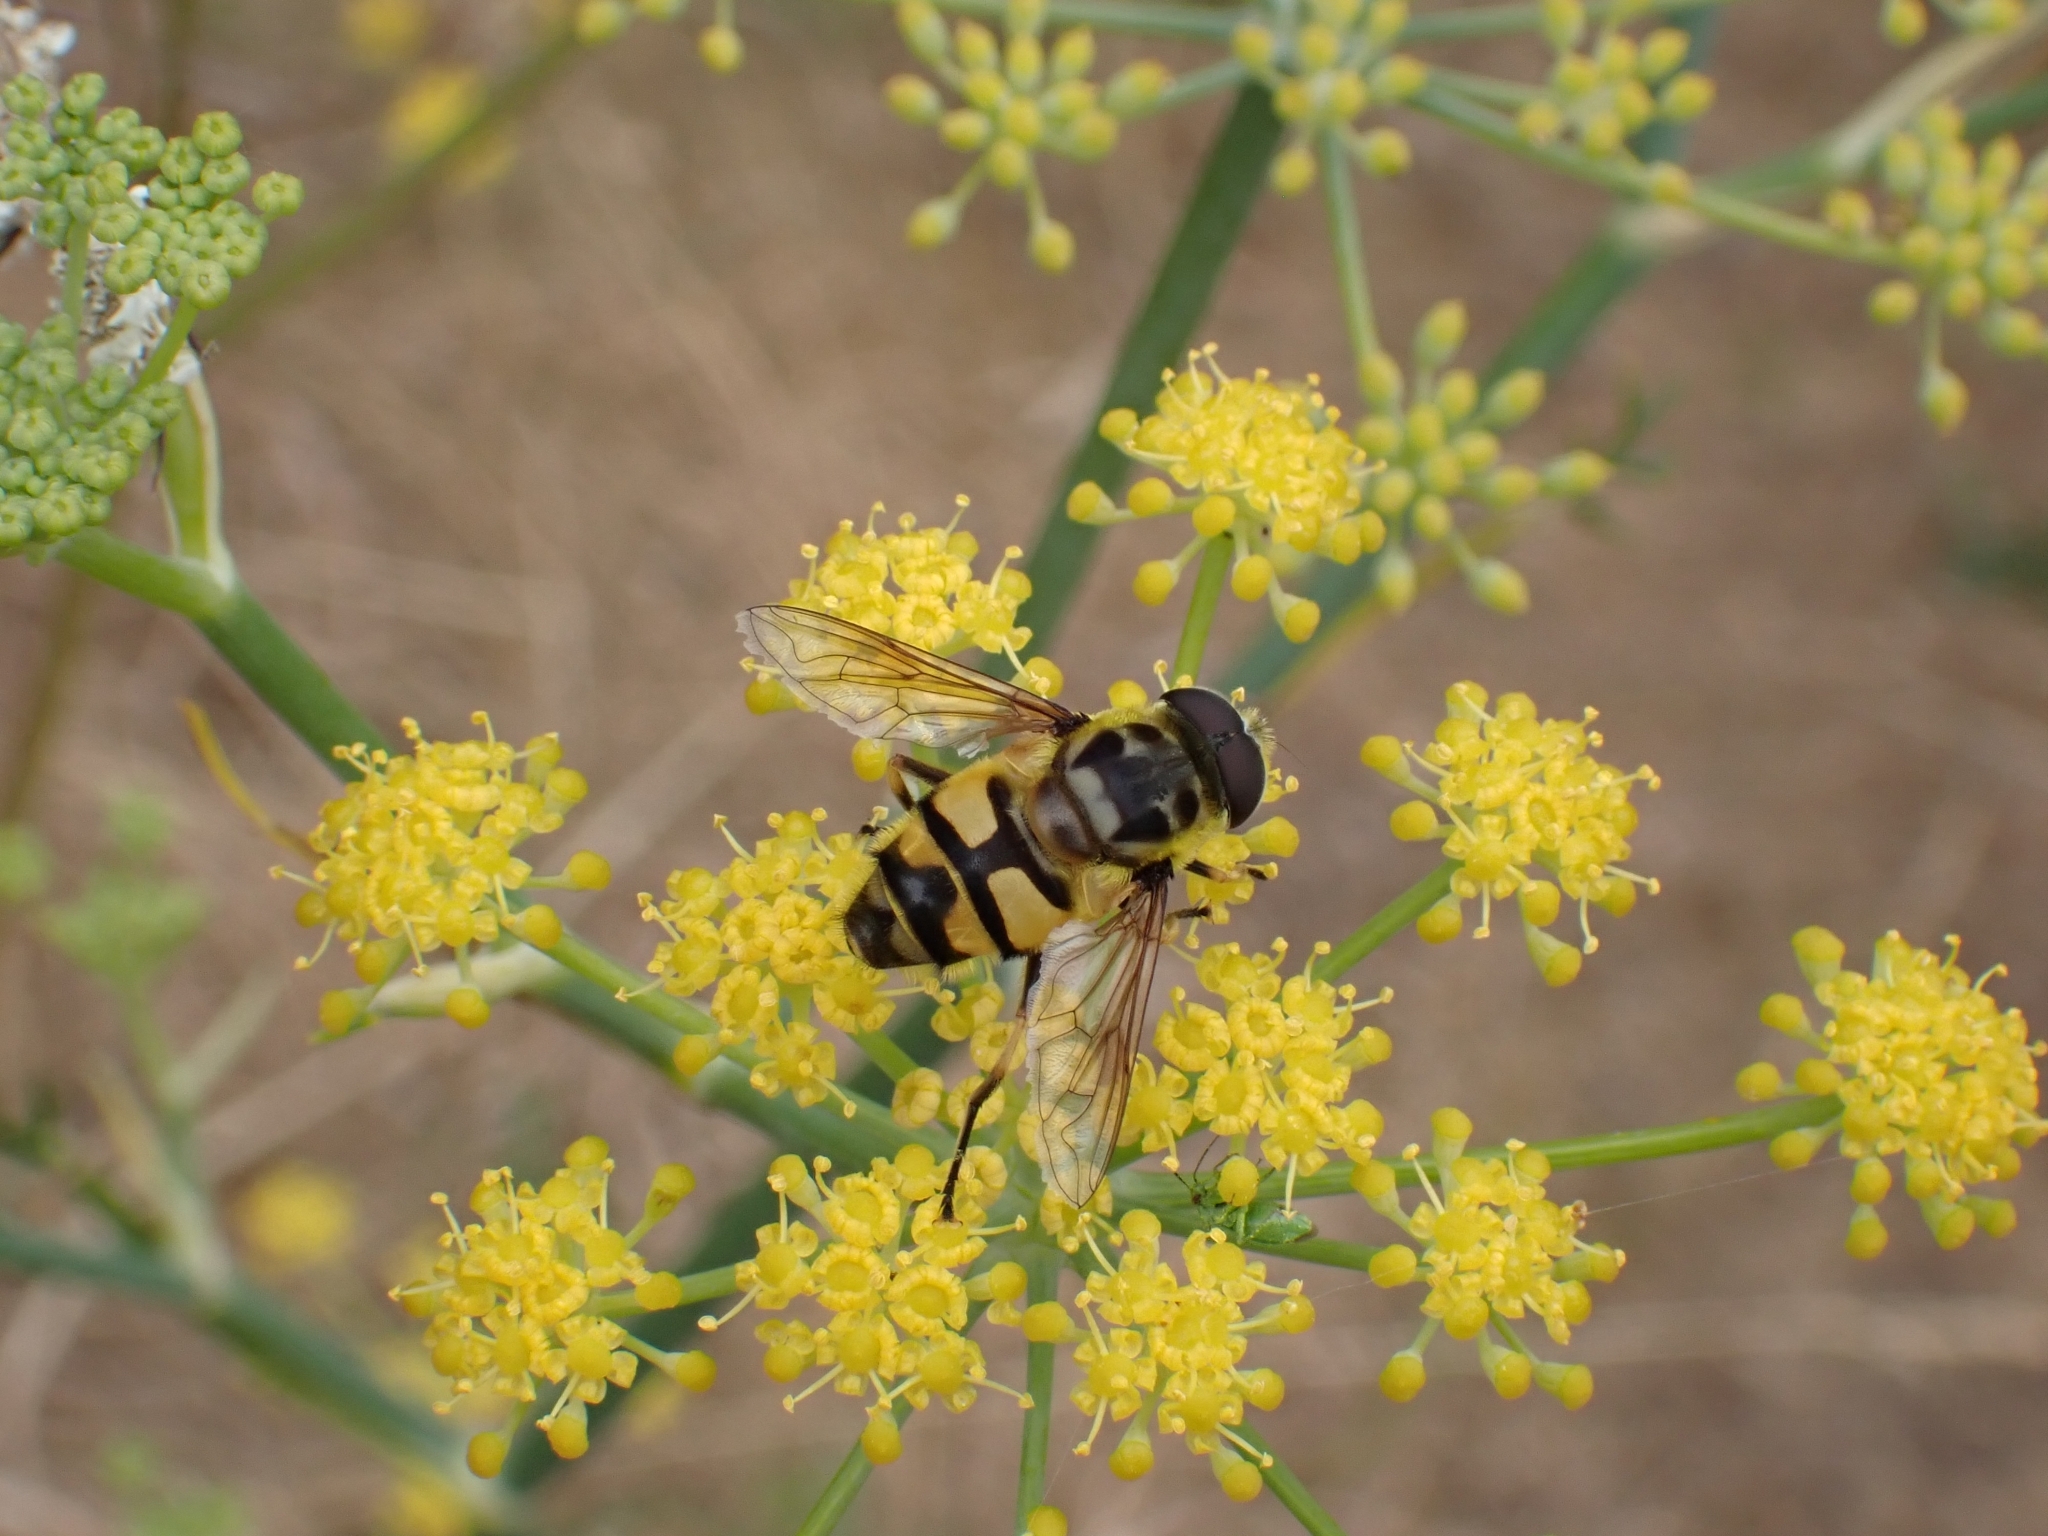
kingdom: Animalia
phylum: Arthropoda
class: Insecta
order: Diptera
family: Syrphidae
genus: Myathropa
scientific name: Myathropa florea
